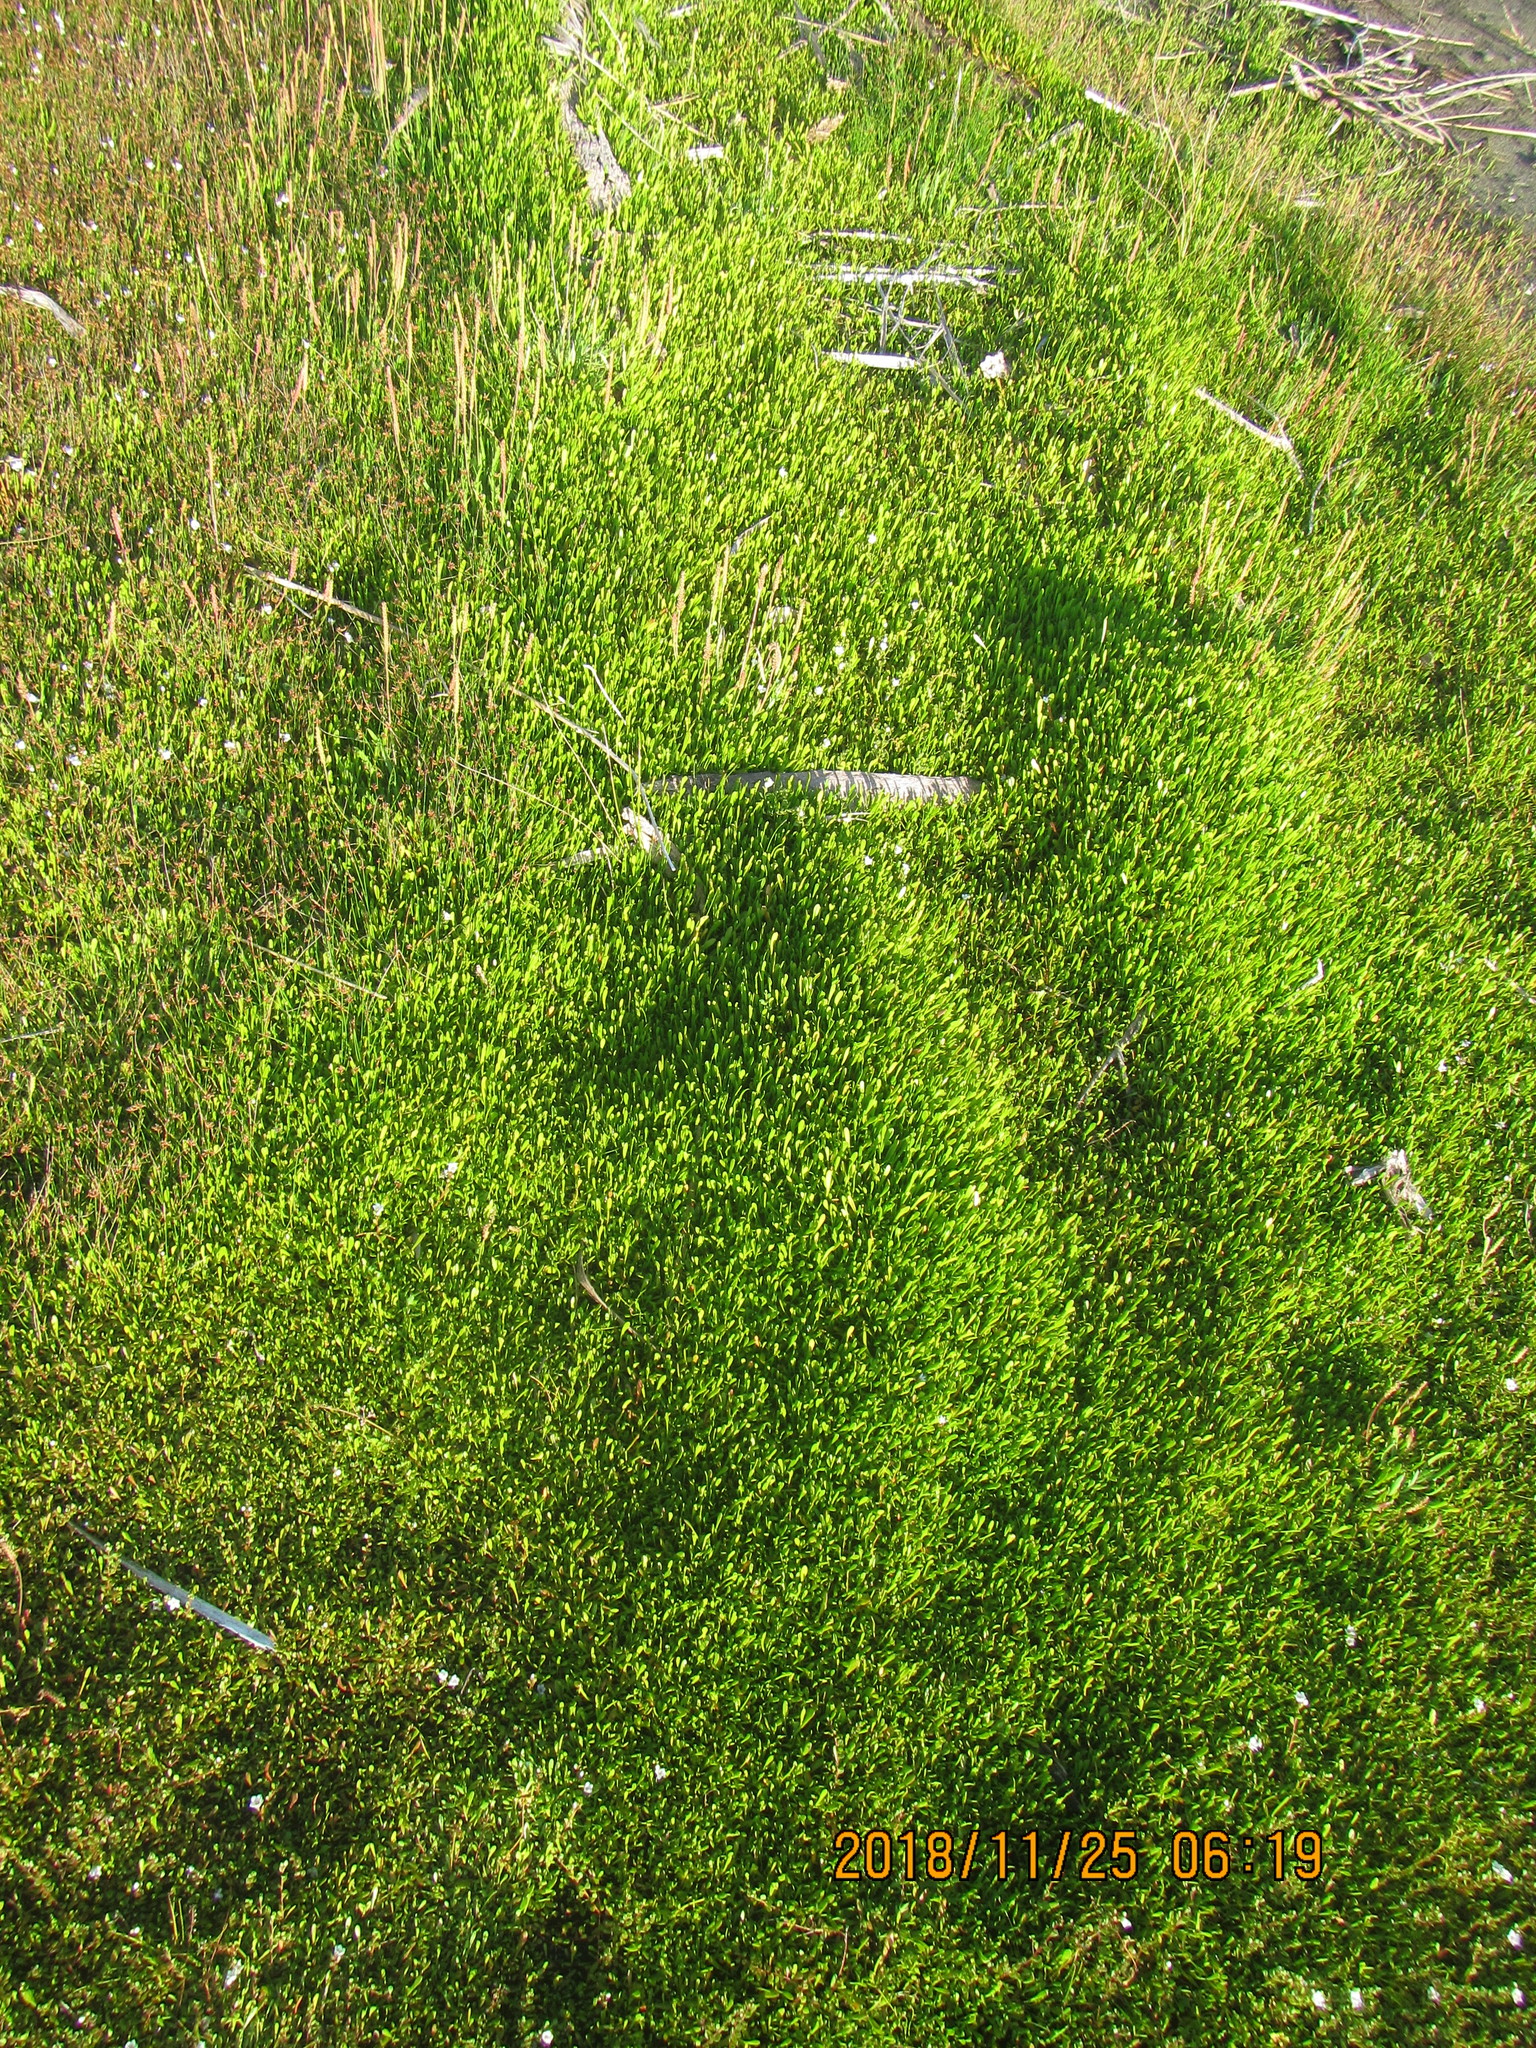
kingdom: Plantae
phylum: Tracheophyta
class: Magnoliopsida
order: Asterales
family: Goodeniaceae
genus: Goodenia
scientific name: Goodenia radicans
